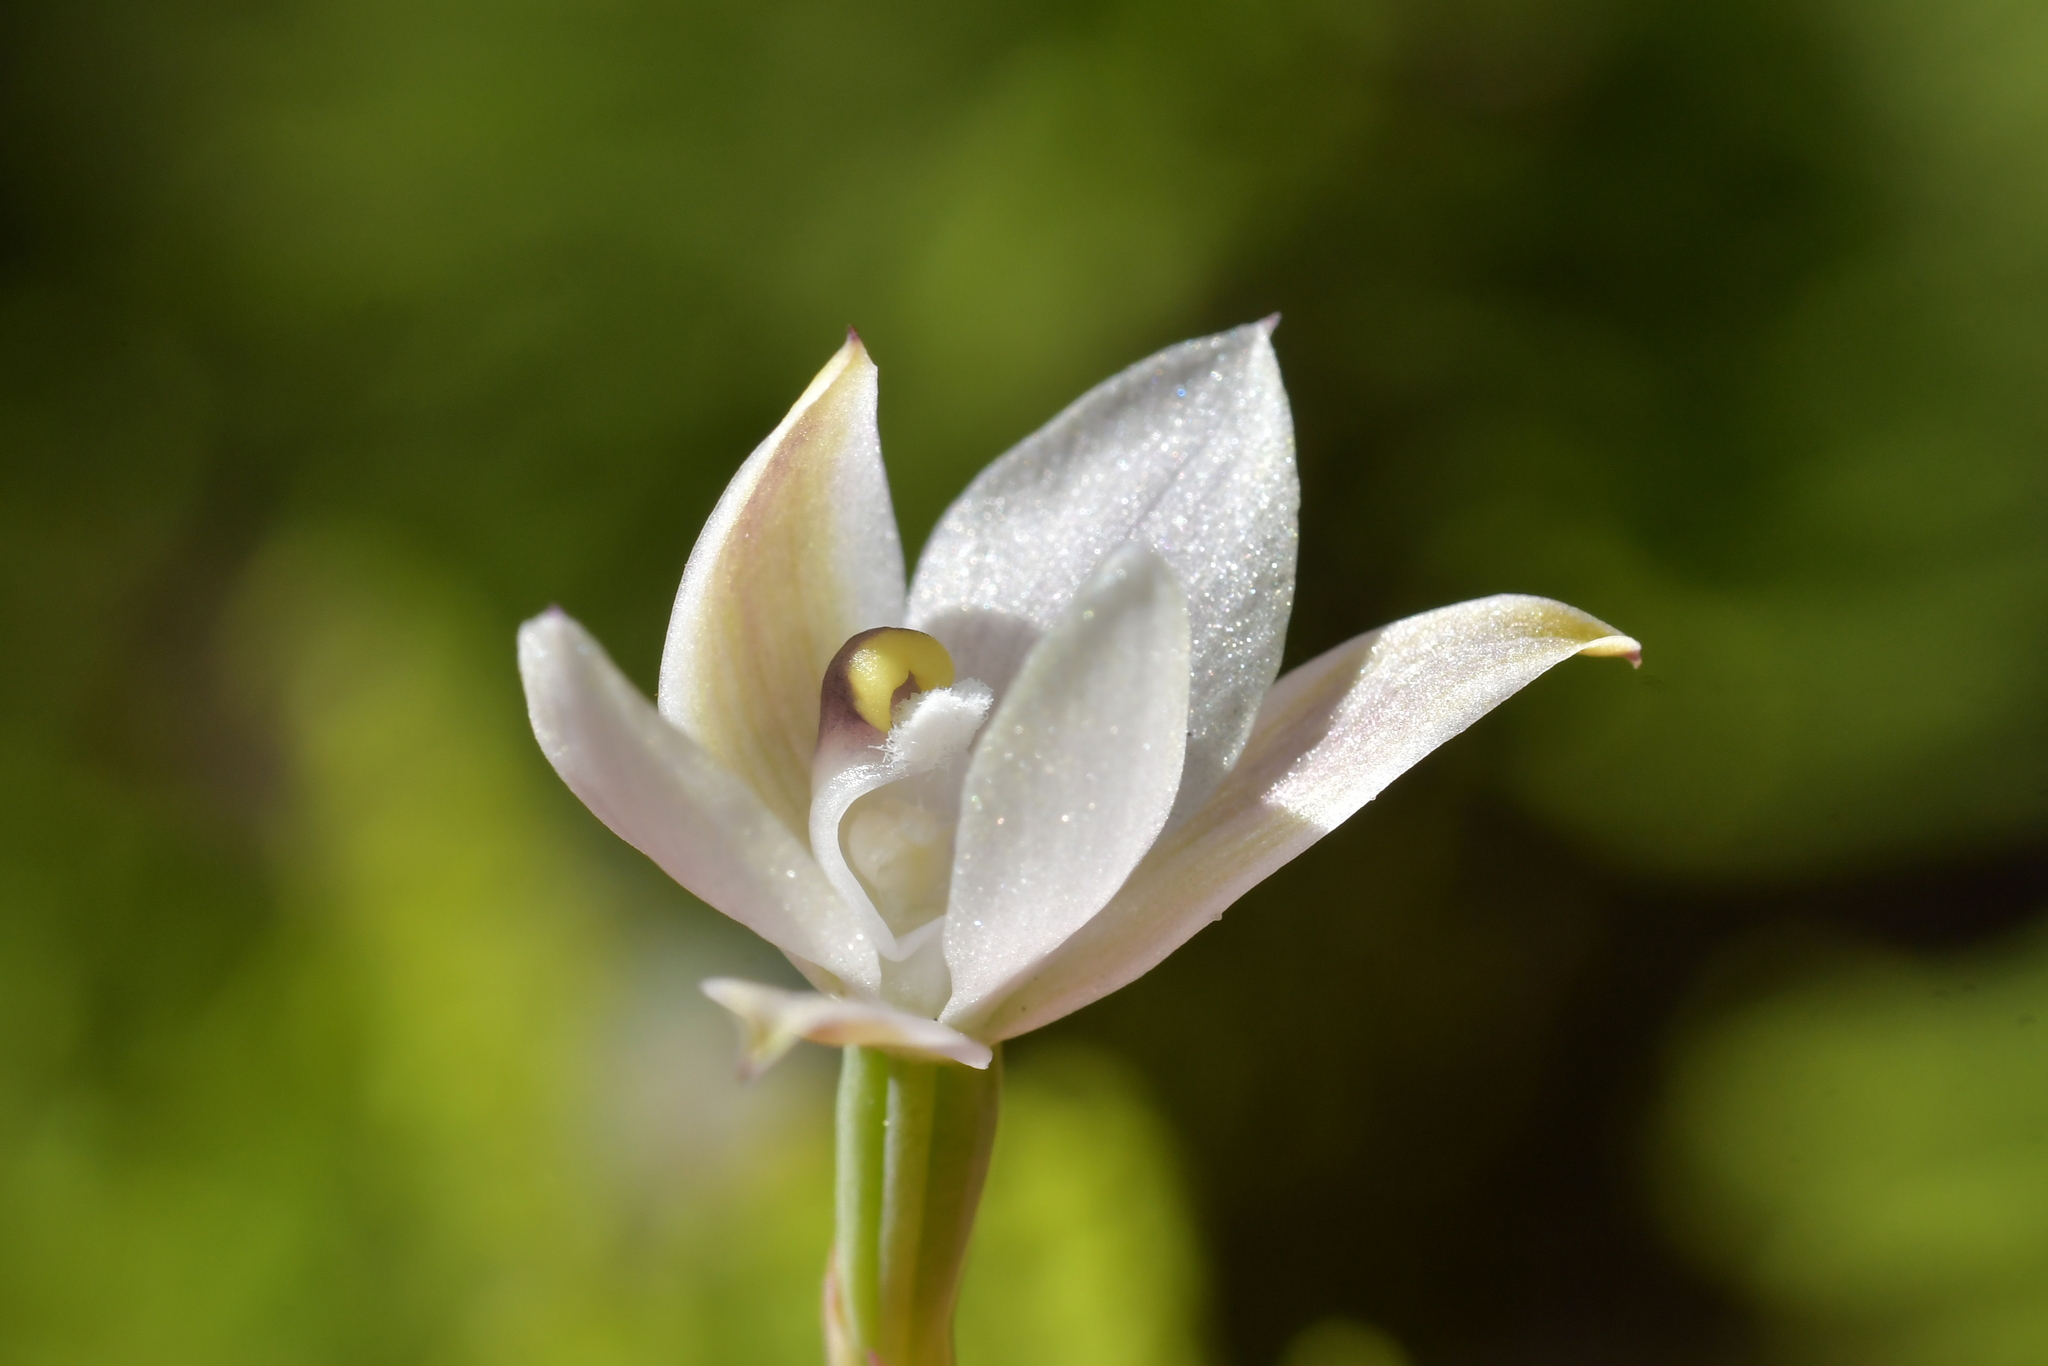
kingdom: Plantae
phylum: Tracheophyta
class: Liliopsida
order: Asparagales
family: Orchidaceae
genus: Thelymitra
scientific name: Thelymitra longifolia
